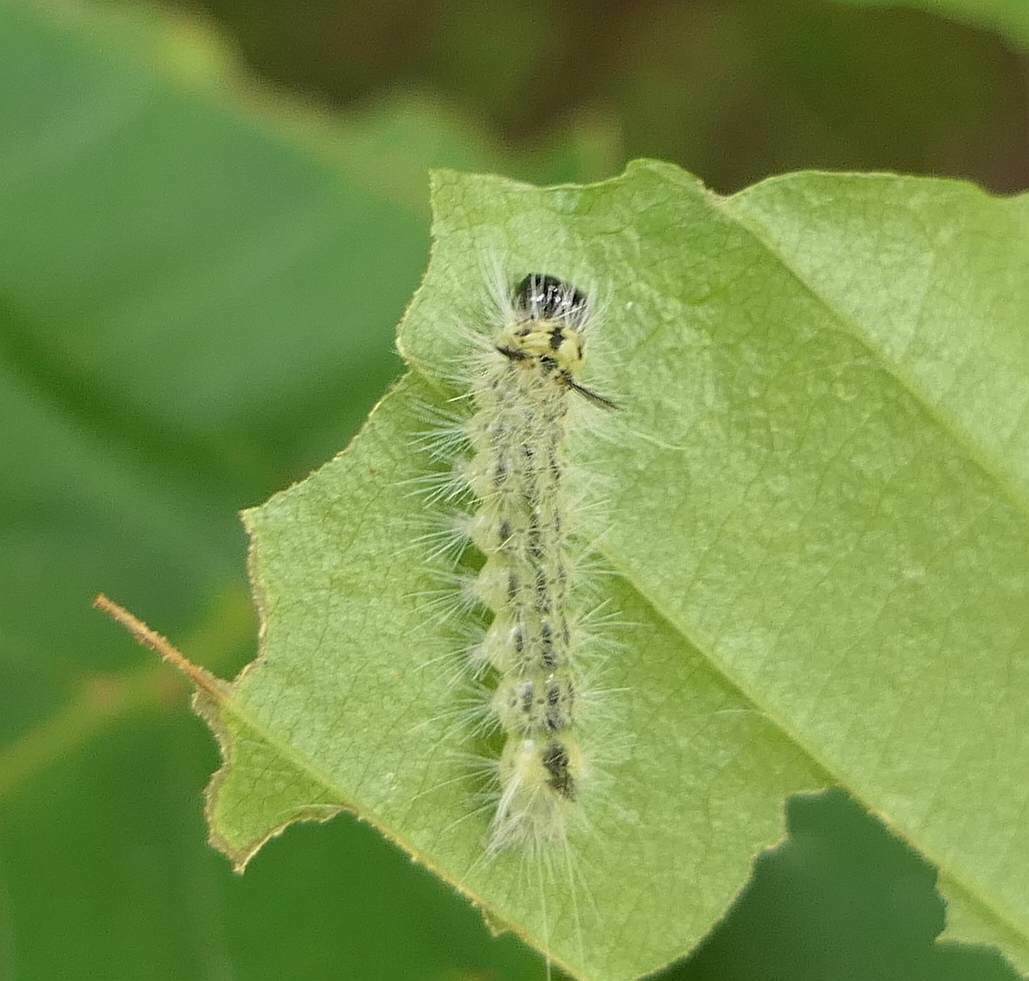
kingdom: Animalia
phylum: Arthropoda
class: Insecta
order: Lepidoptera
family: Erebidae
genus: Halysidota
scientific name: Halysidota tessellaris
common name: Banded tussock moth
